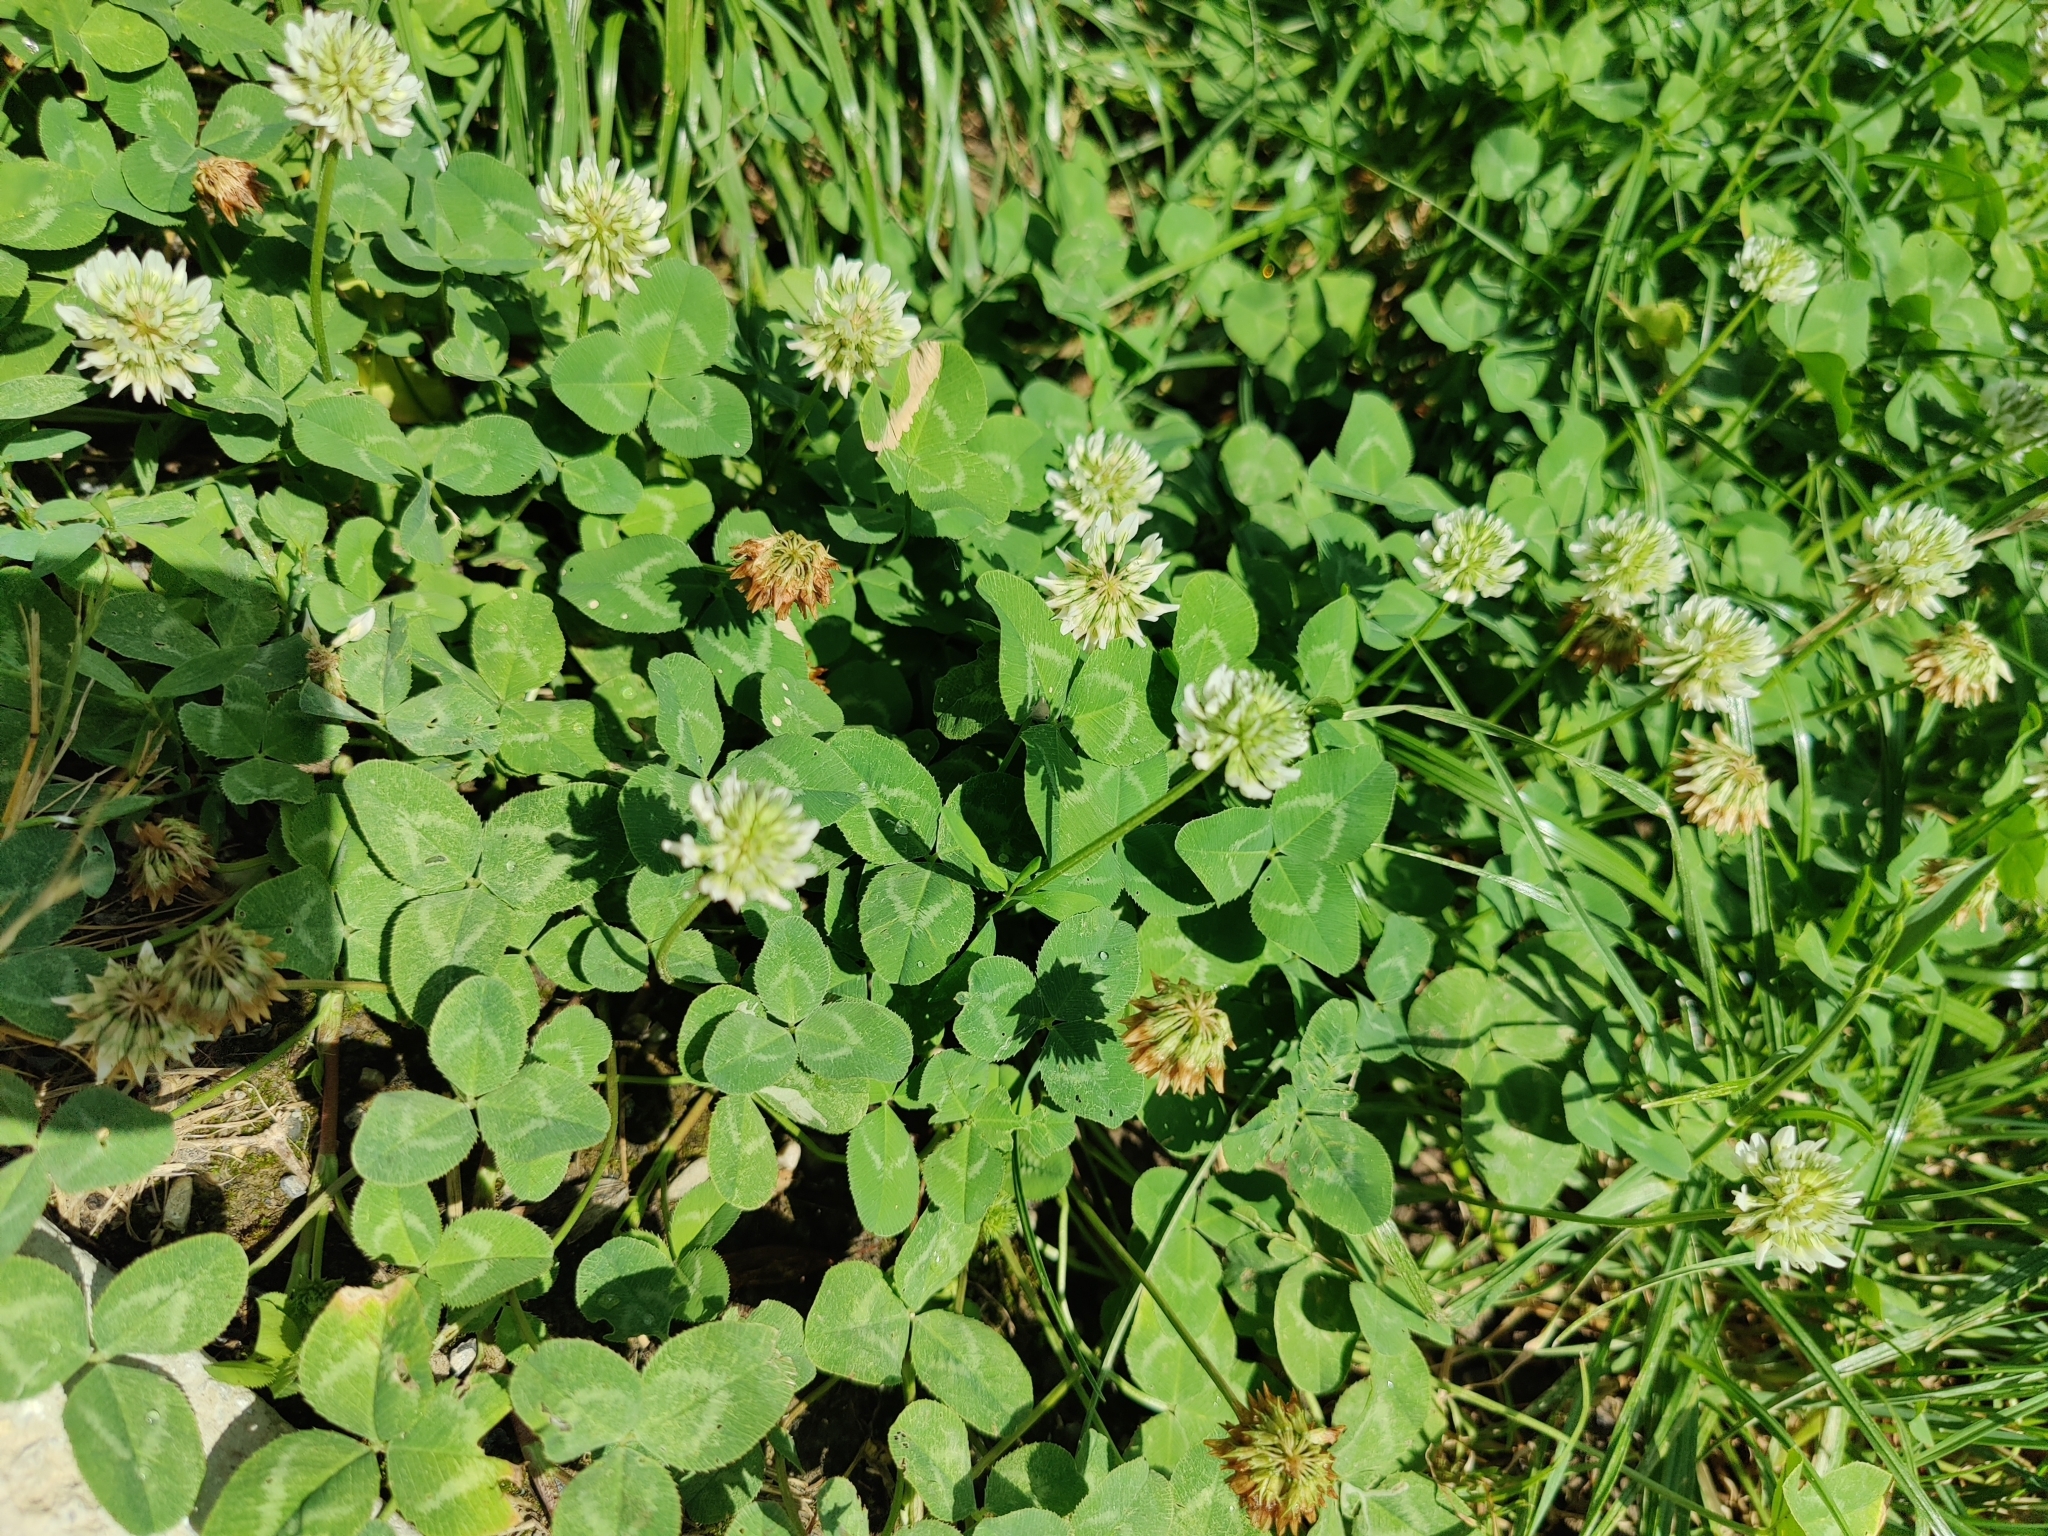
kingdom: Plantae
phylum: Tracheophyta
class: Magnoliopsida
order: Fabales
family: Fabaceae
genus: Trifolium
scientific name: Trifolium repens
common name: White clover
